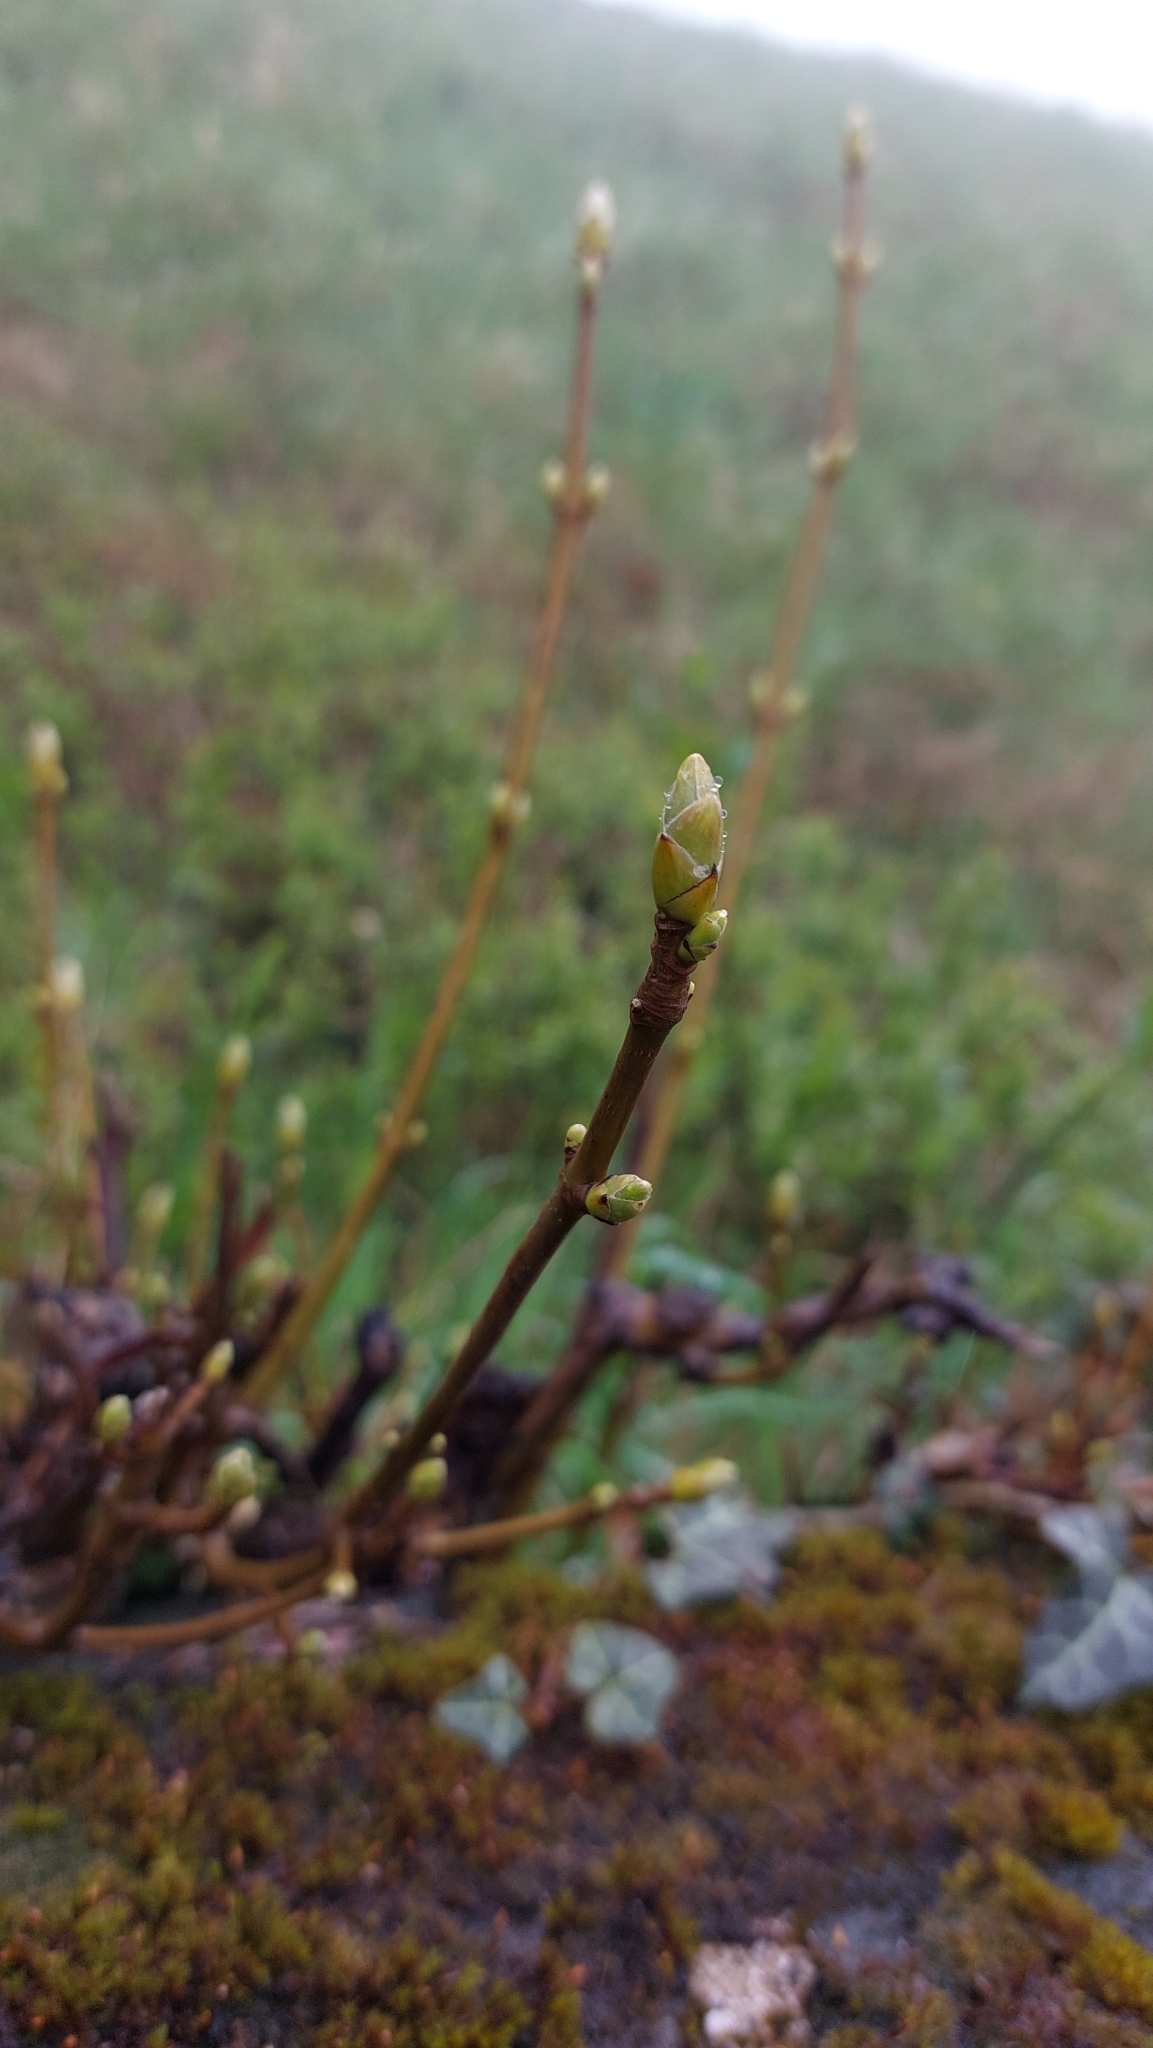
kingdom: Plantae
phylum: Tracheophyta
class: Magnoliopsida
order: Sapindales
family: Sapindaceae
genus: Acer
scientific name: Acer pseudoplatanus
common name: Sycamore
